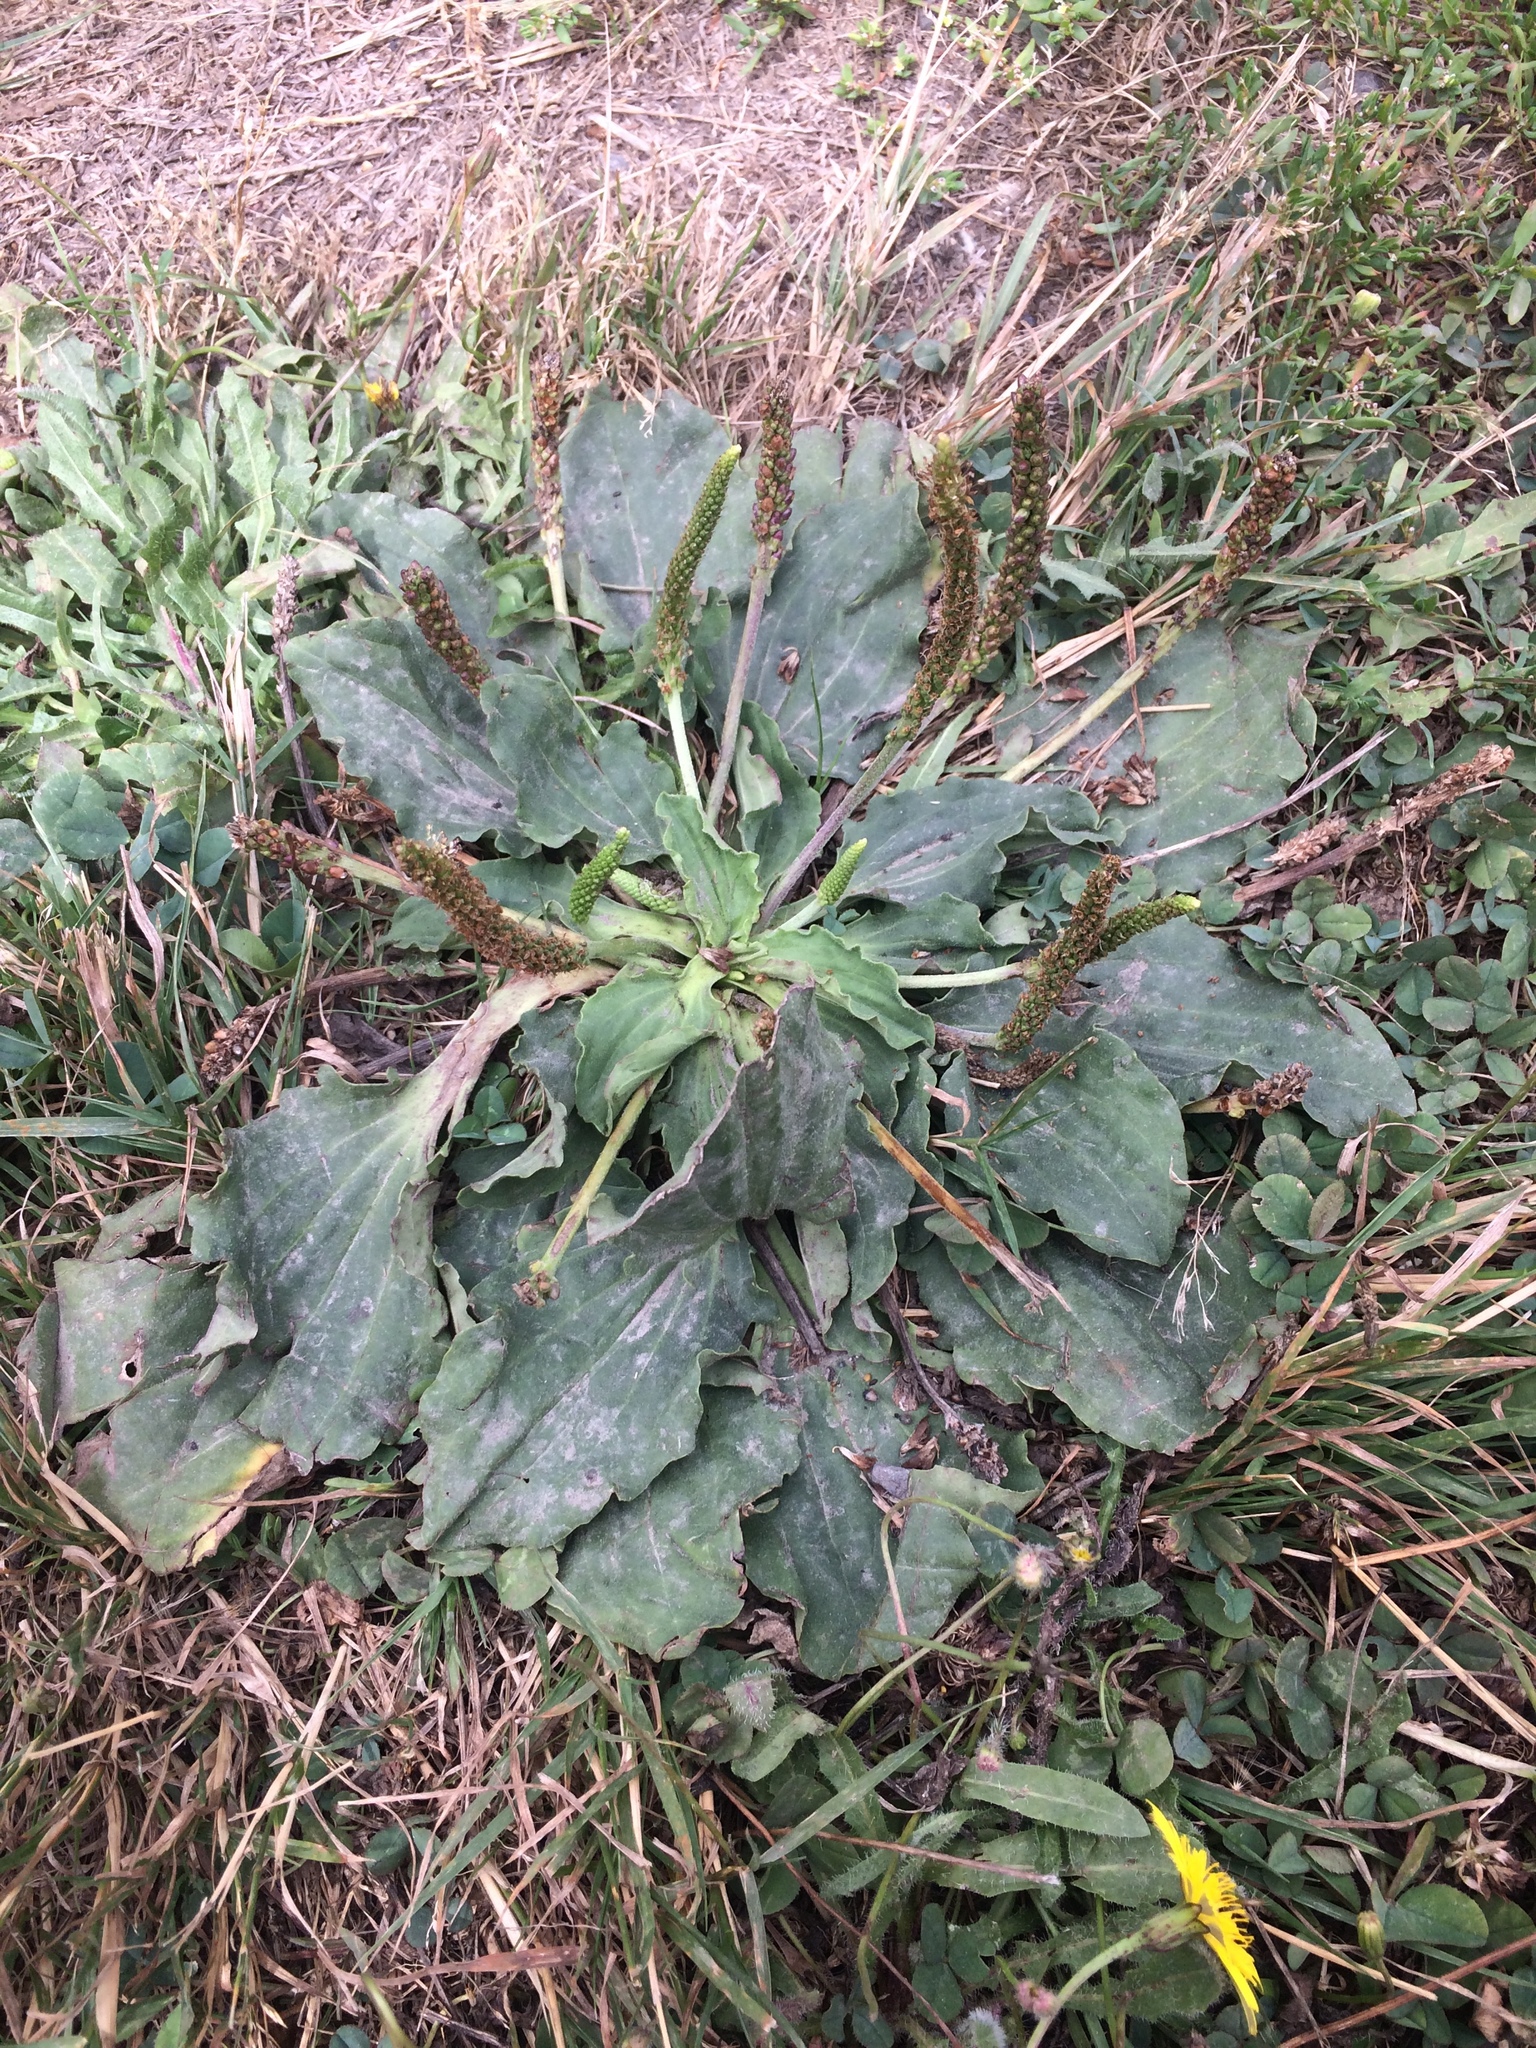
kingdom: Plantae
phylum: Tracheophyta
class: Magnoliopsida
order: Lamiales
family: Plantaginaceae
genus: Plantago
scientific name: Plantago major
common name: Common plantain
